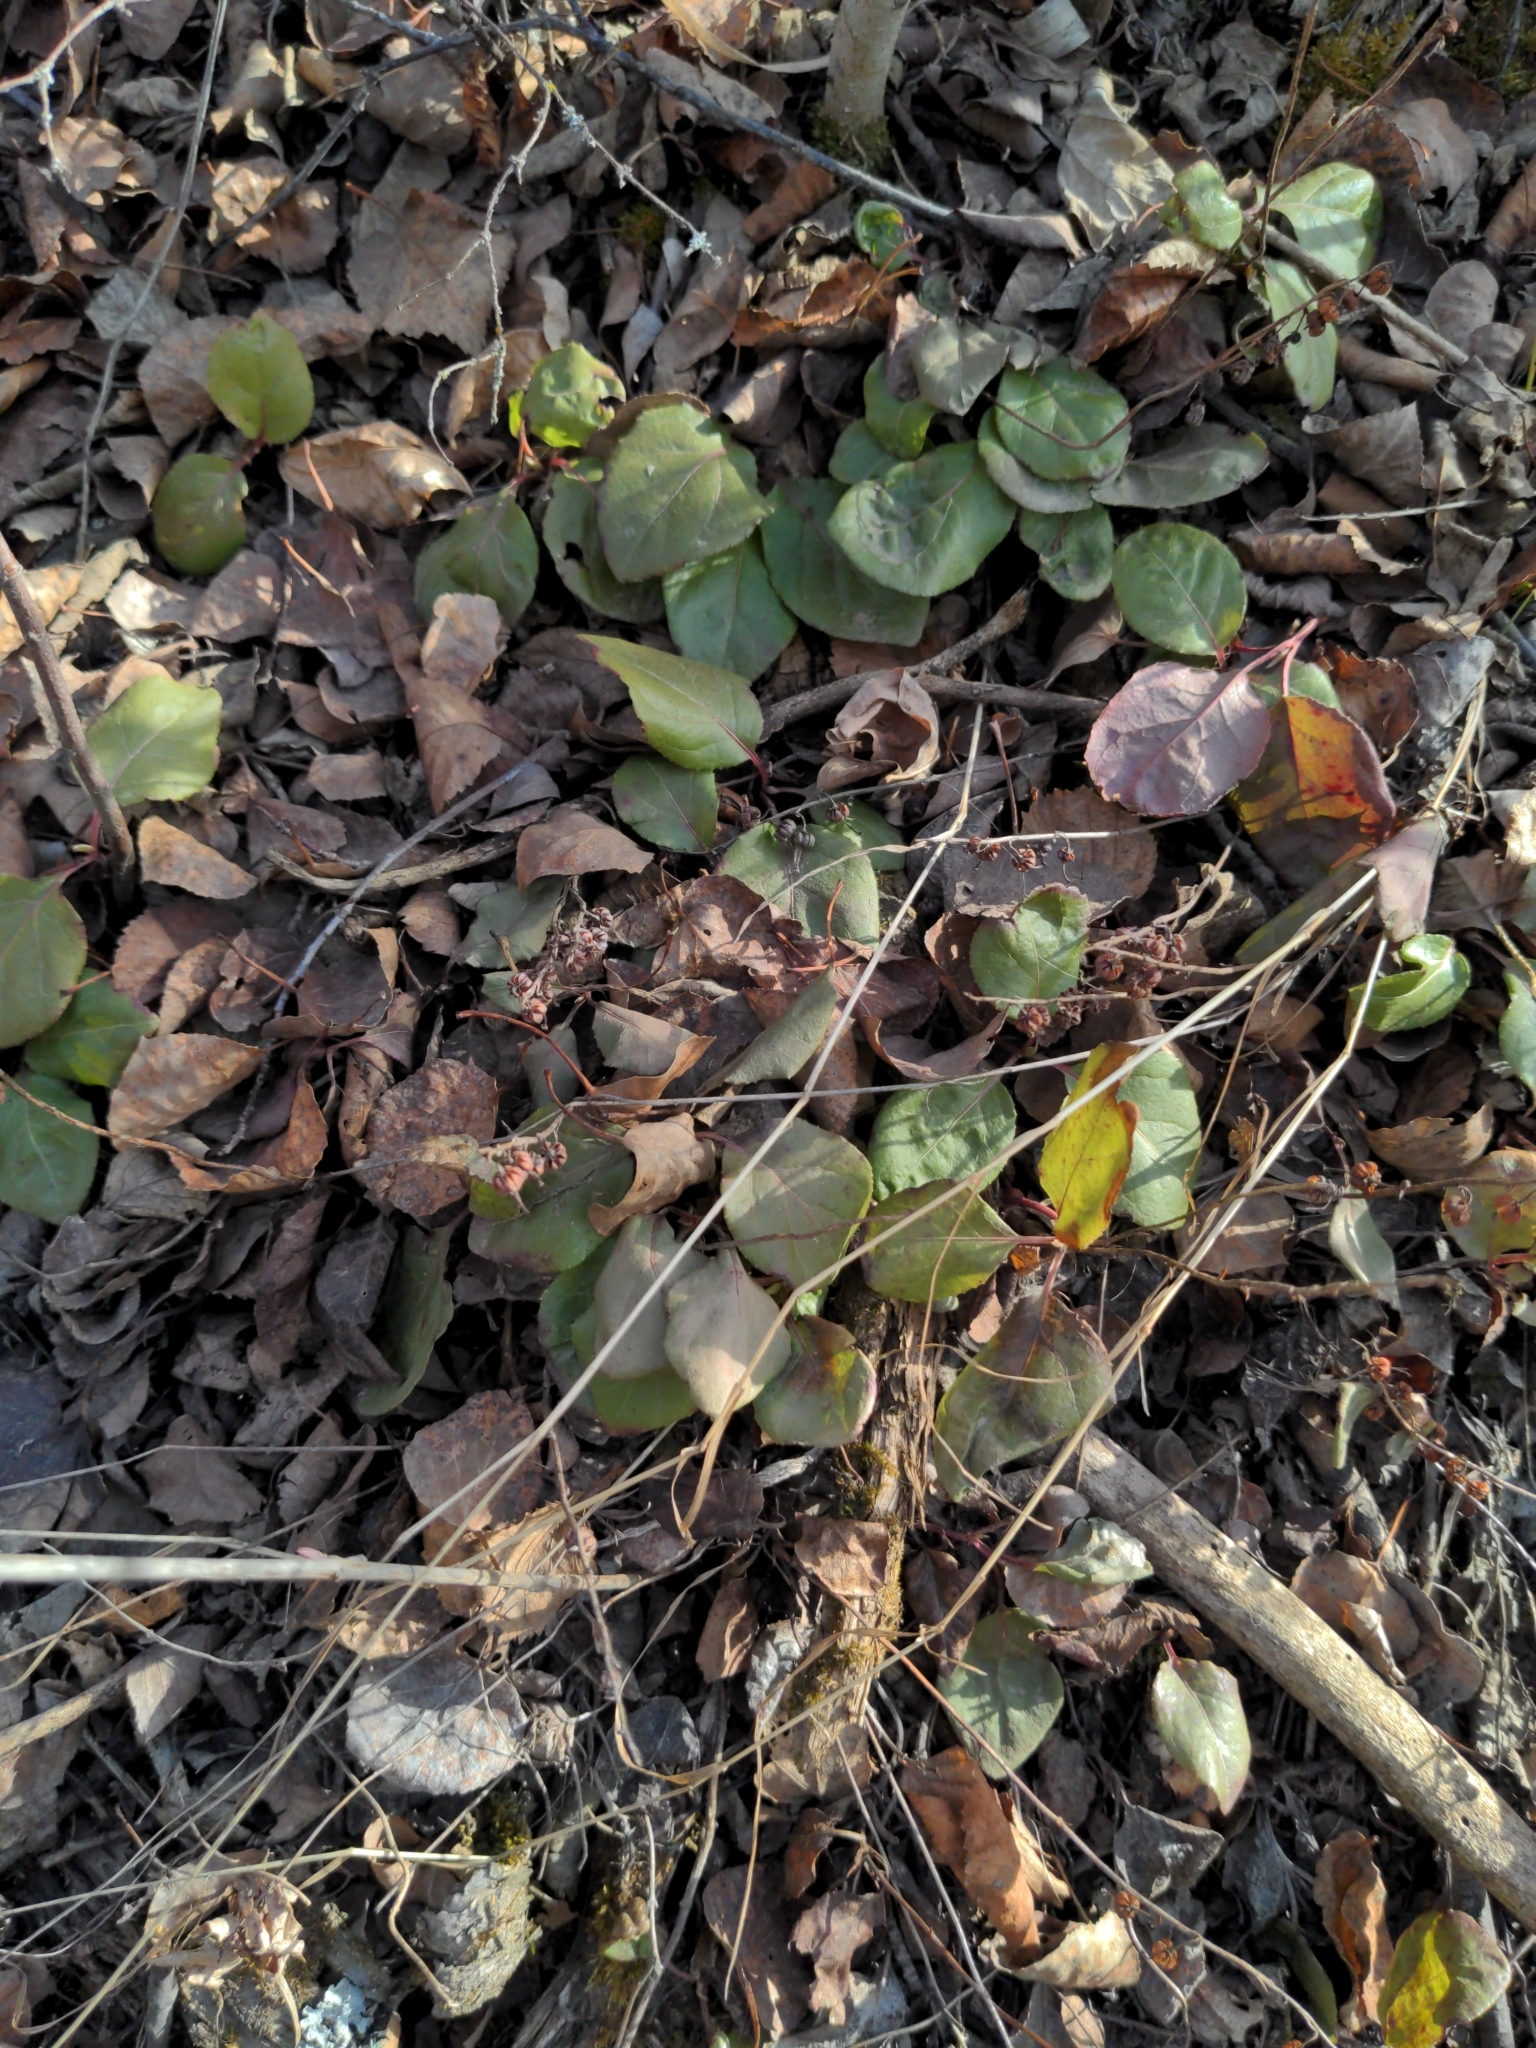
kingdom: Plantae
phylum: Tracheophyta
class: Magnoliopsida
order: Ericales
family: Ericaceae
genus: Orthilia
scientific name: Orthilia secunda
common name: One-sided orthilia
